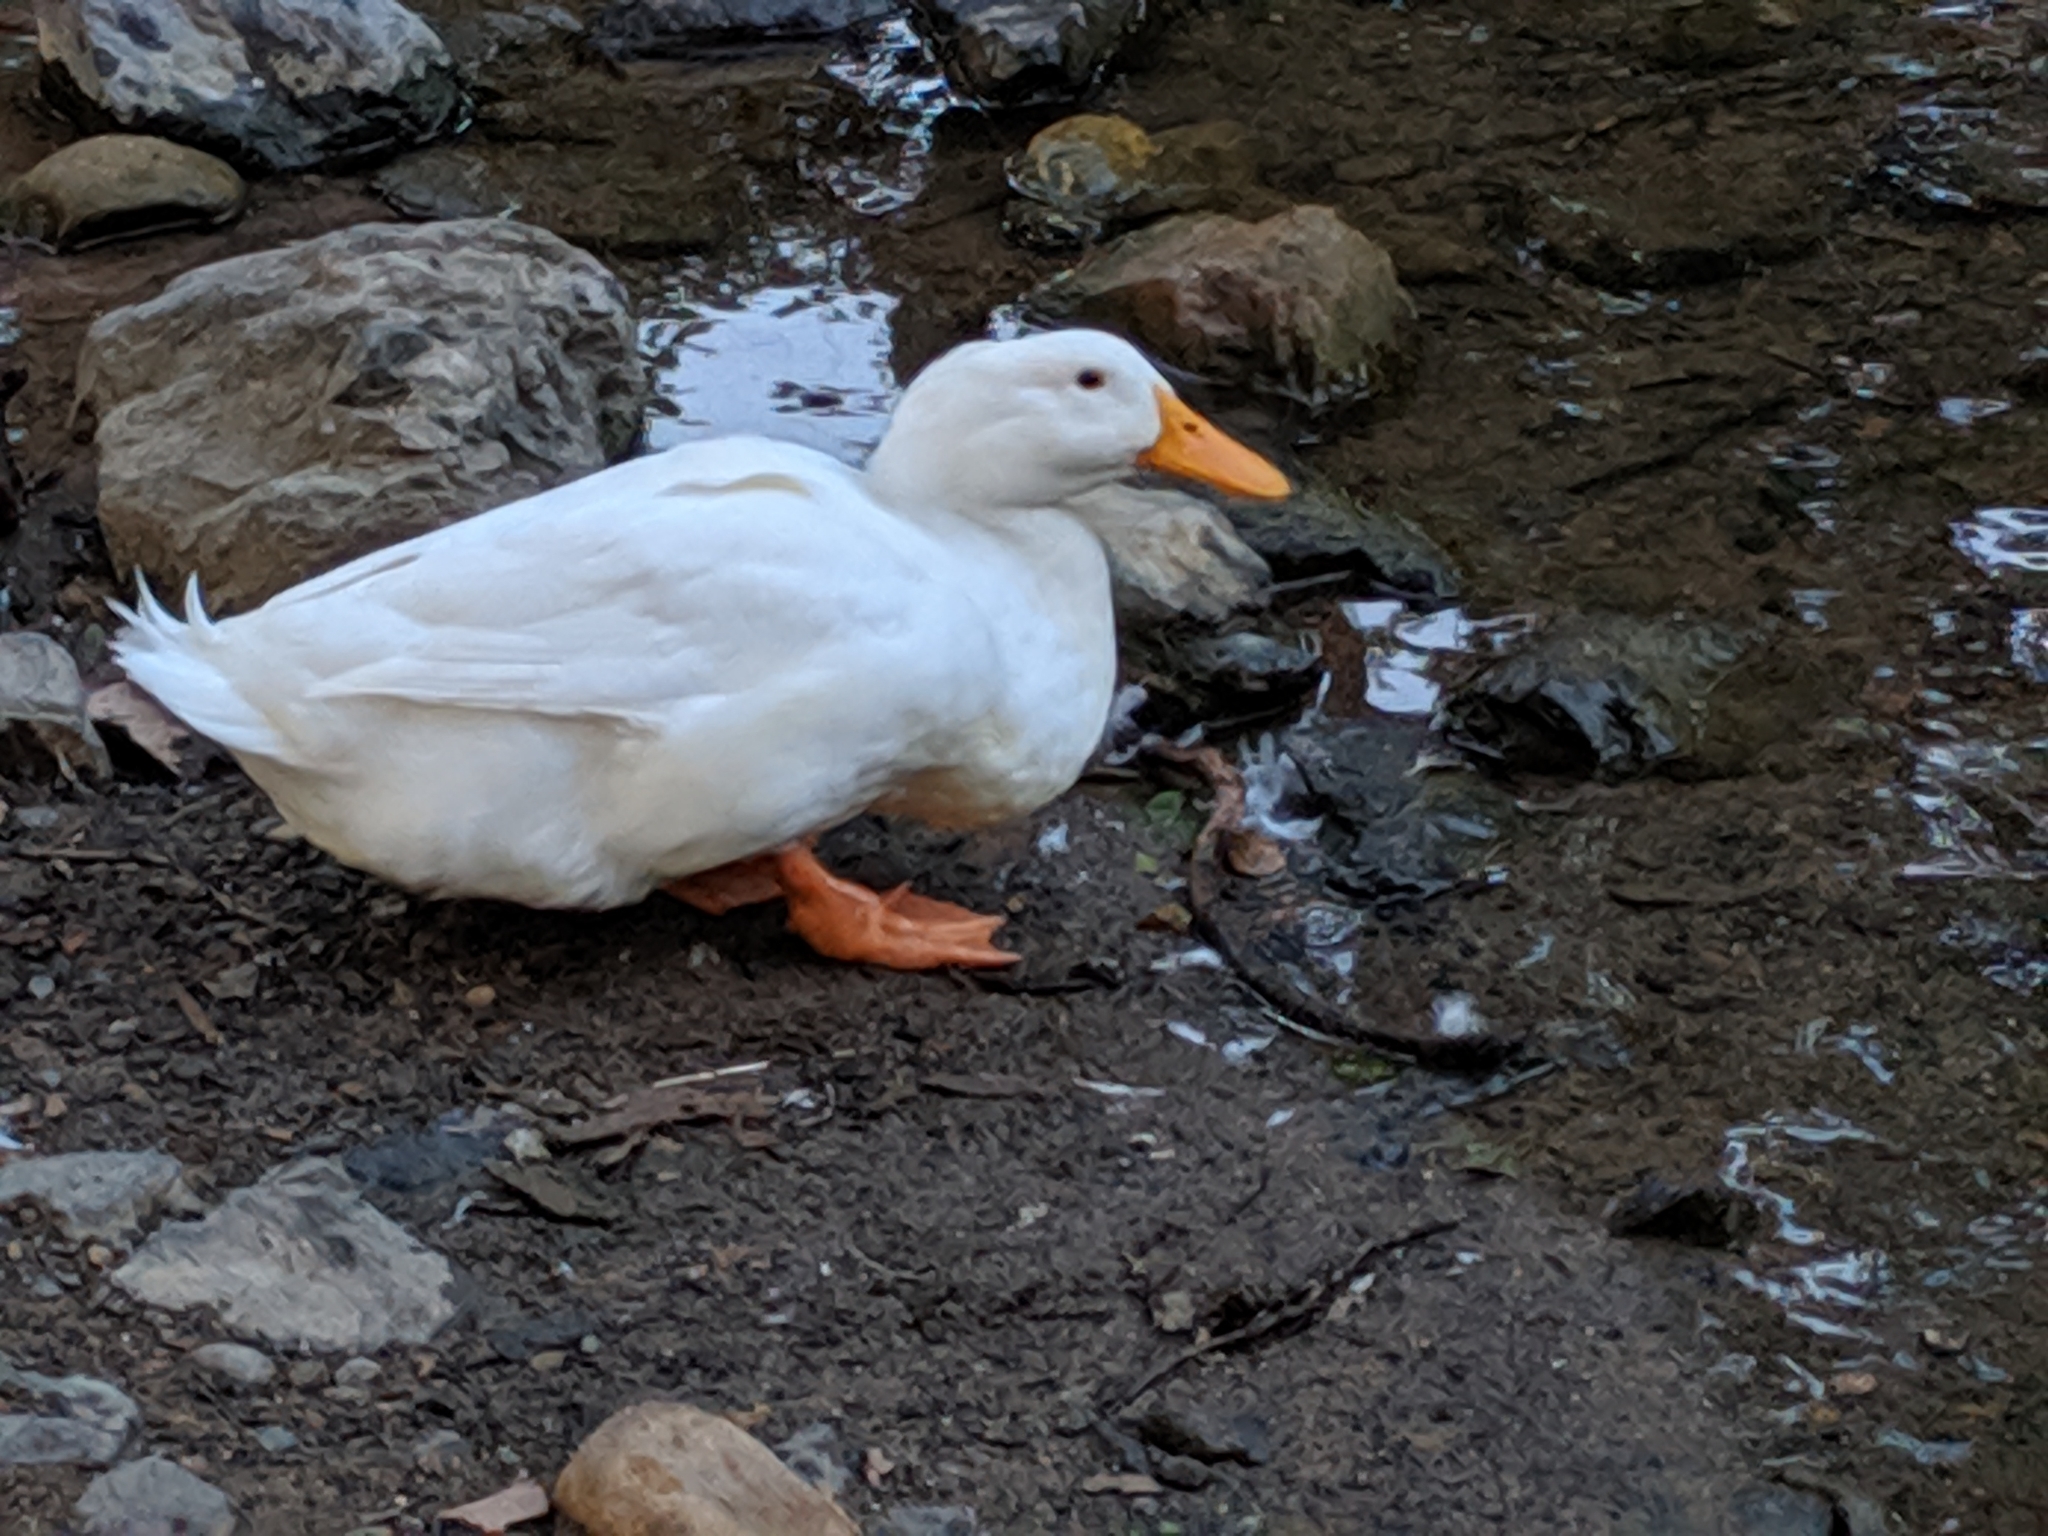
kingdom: Animalia
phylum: Chordata
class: Aves
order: Anseriformes
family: Anatidae
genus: Anas
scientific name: Anas platyrhynchos
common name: Mallard
